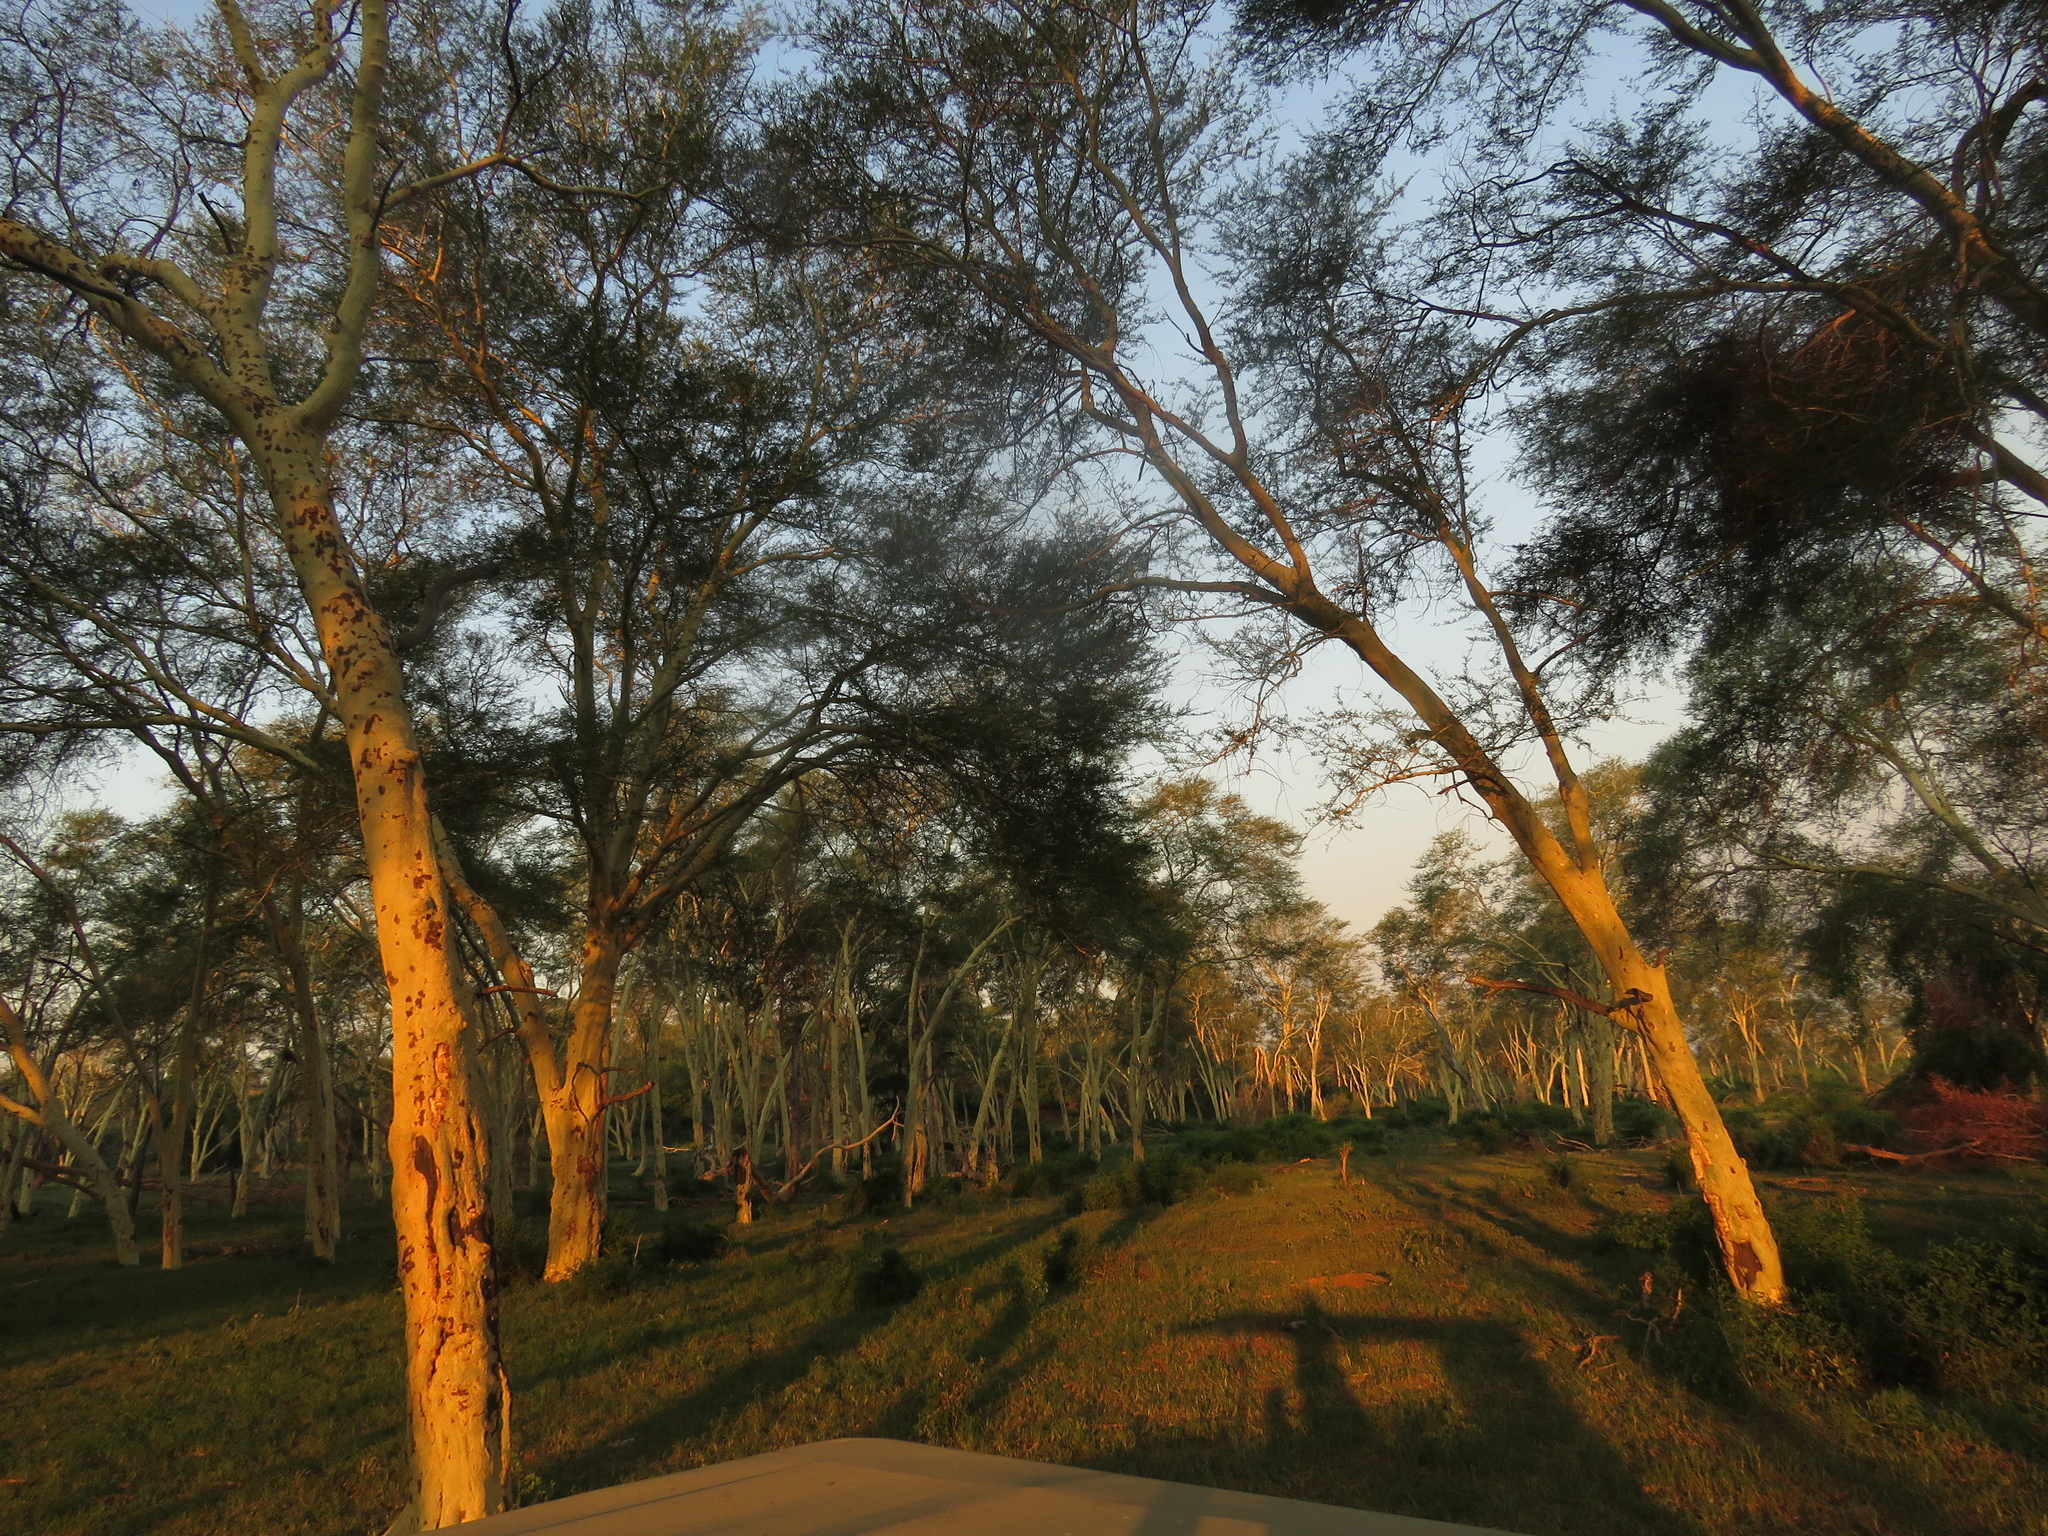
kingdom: Plantae
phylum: Tracheophyta
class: Magnoliopsida
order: Fabales
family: Fabaceae
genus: Vachellia
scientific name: Vachellia xanthophloea
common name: Fever tree
